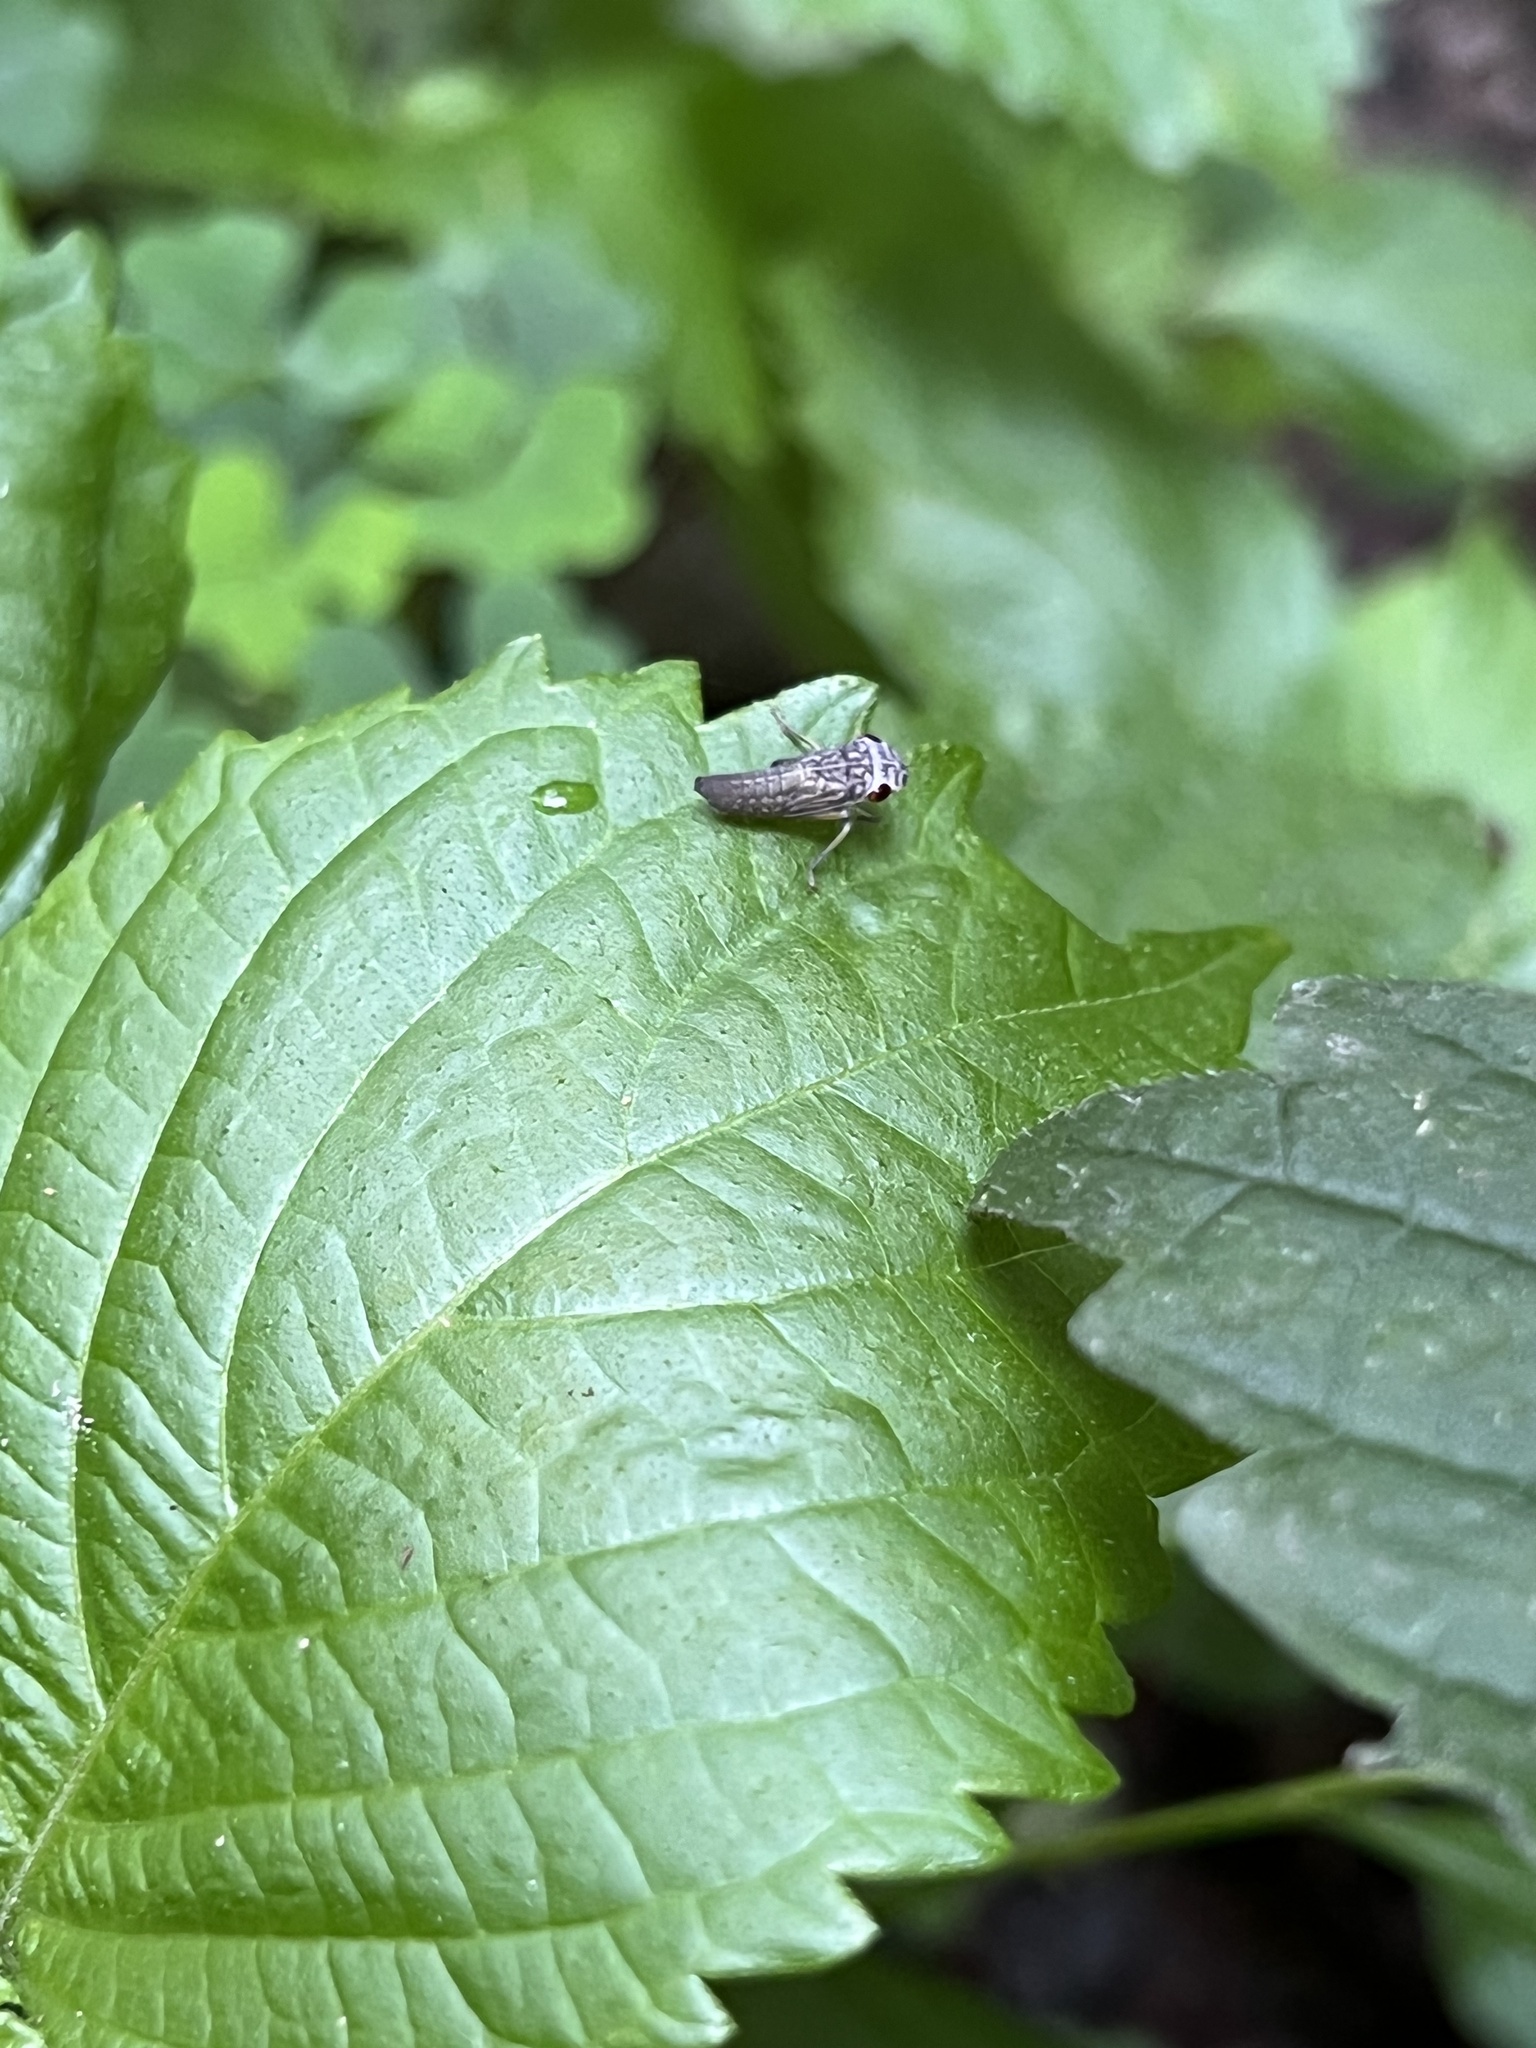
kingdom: Animalia
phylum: Arthropoda
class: Insecta
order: Hemiptera
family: Cicadellidae
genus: Oncometopia
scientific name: Oncometopia orbona
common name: Broad-headed sharpshooter
